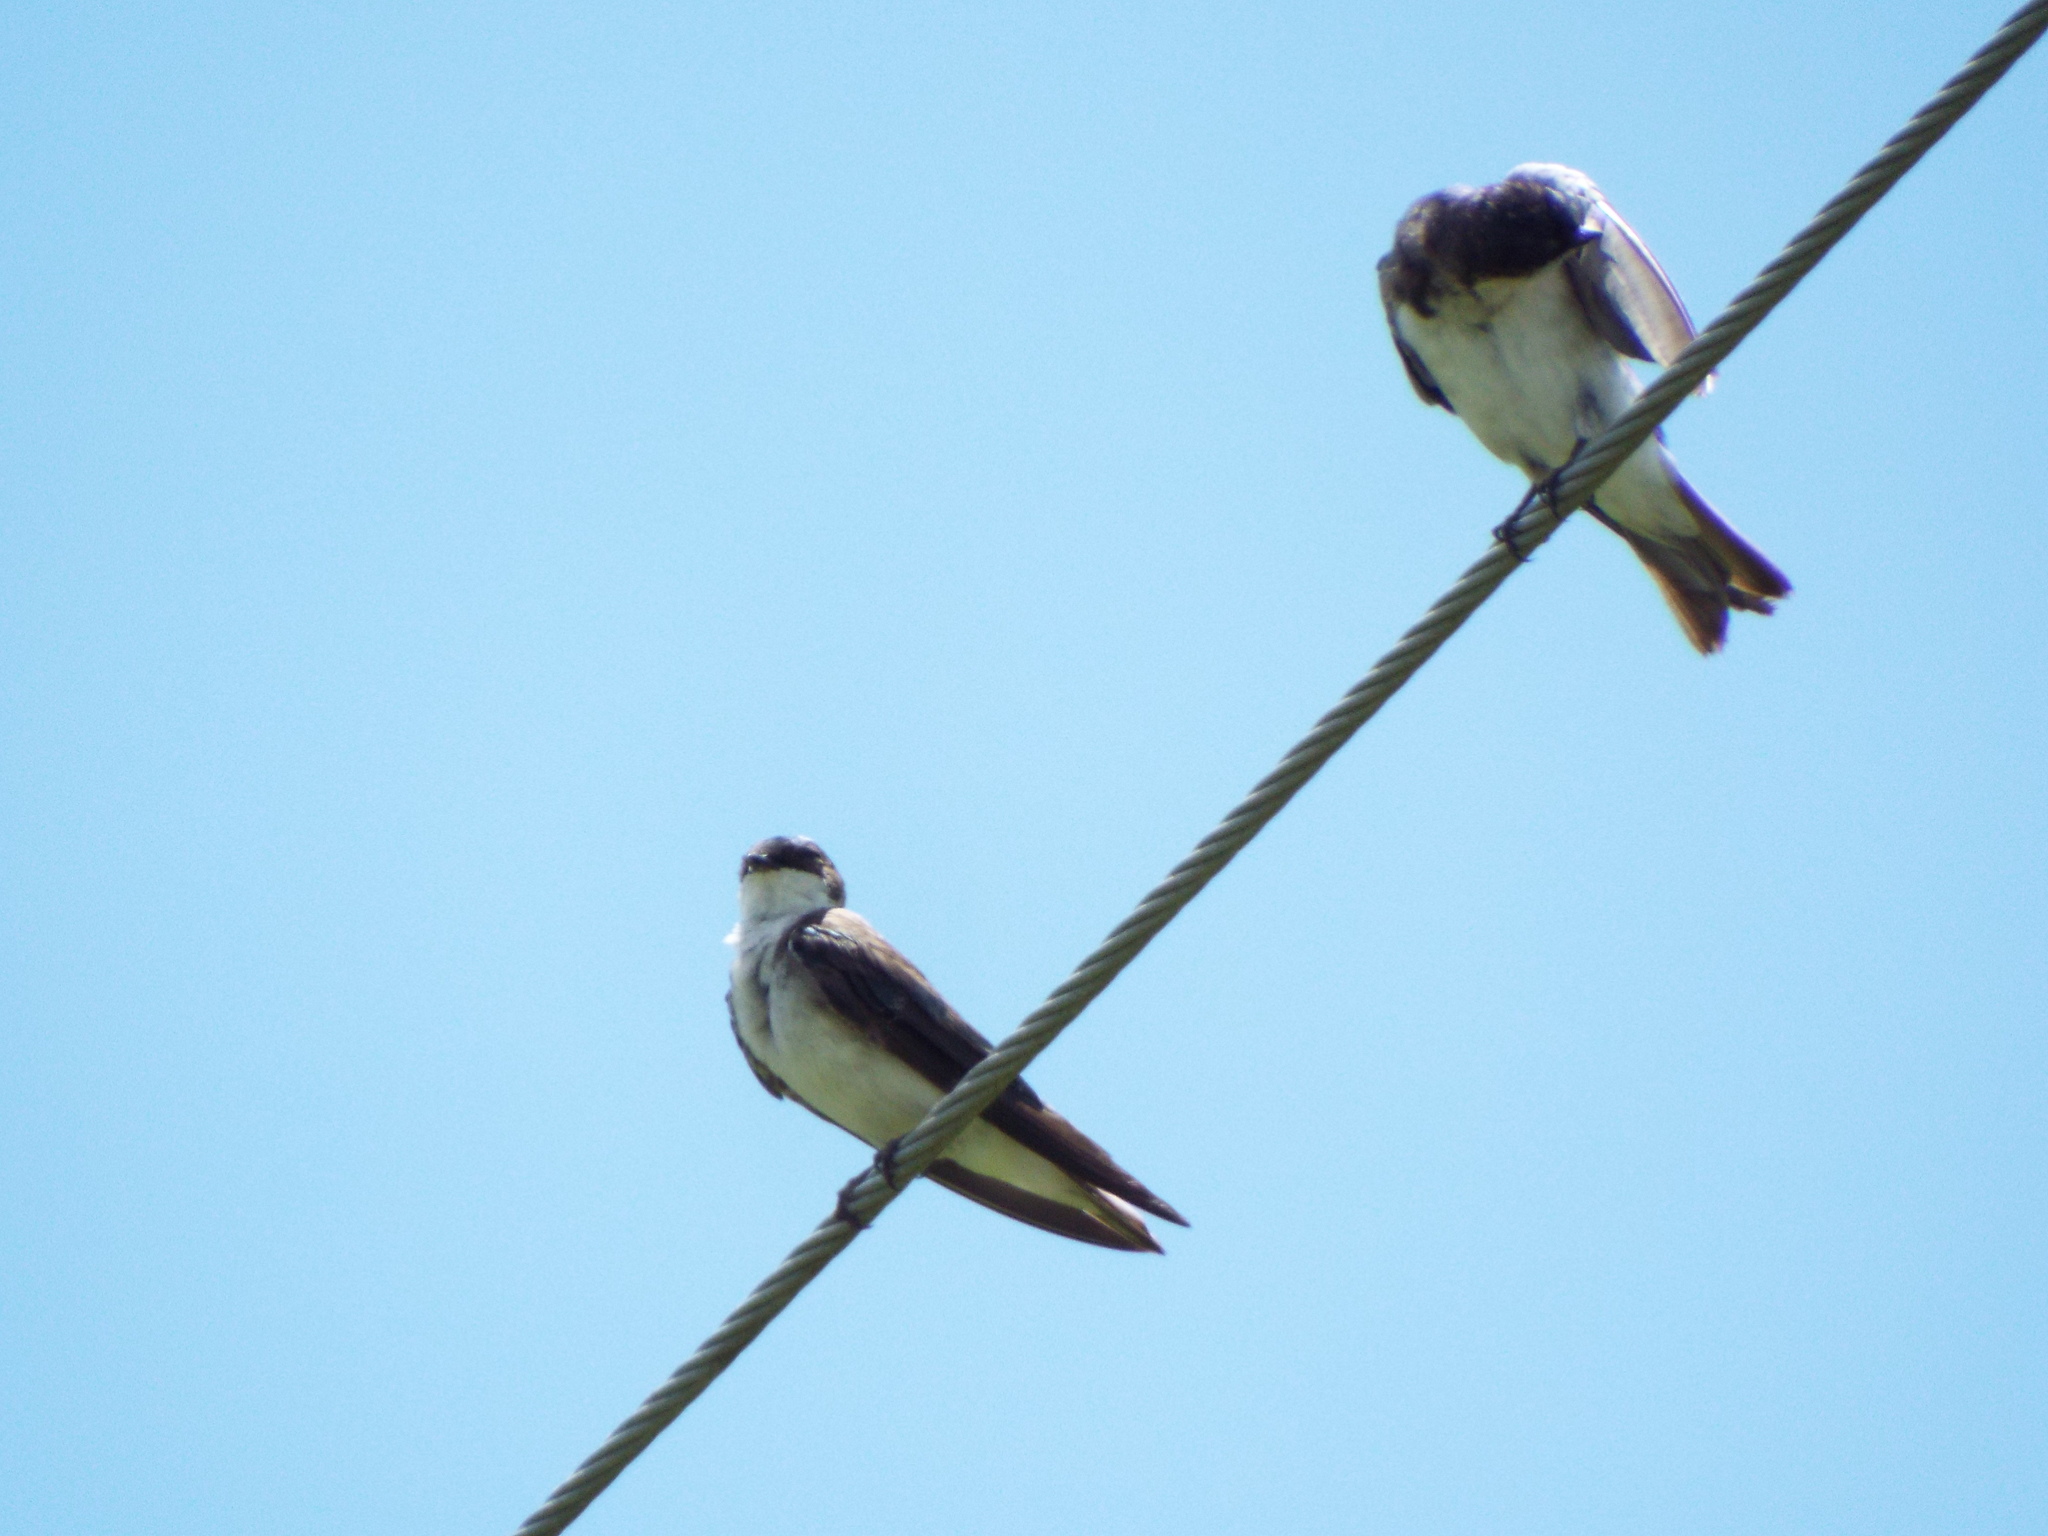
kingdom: Animalia
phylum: Chordata
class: Aves
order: Passeriformes
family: Hirundinidae
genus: Tachycineta
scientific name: Tachycineta bicolor
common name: Tree swallow
